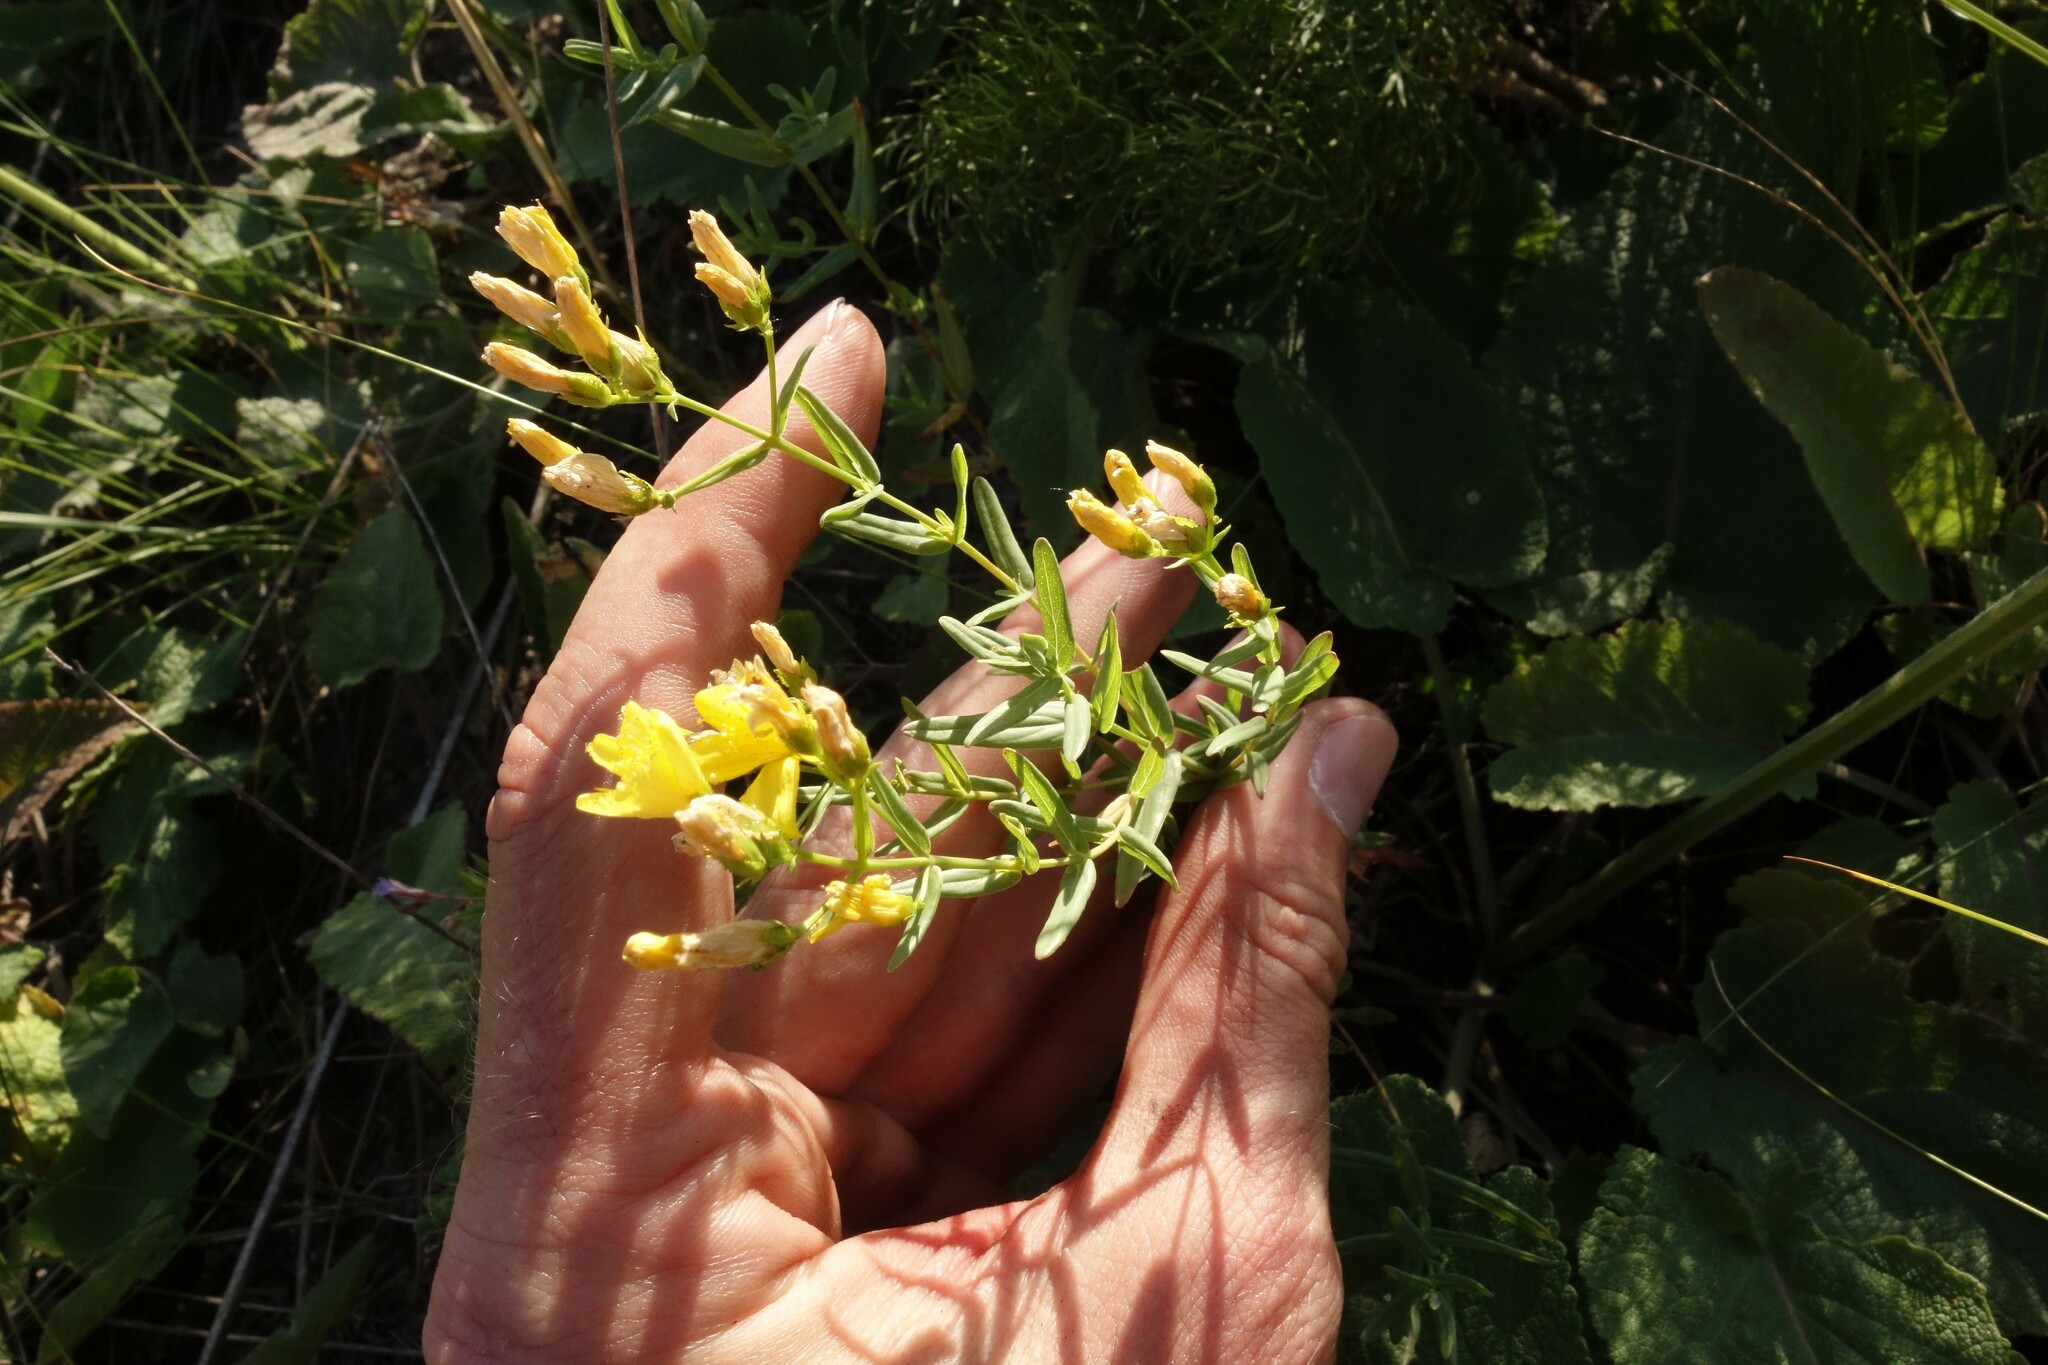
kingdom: Plantae
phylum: Tracheophyta
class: Magnoliopsida
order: Malpighiales
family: Hypericaceae
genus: Hypericum
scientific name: Hypericum elegans
